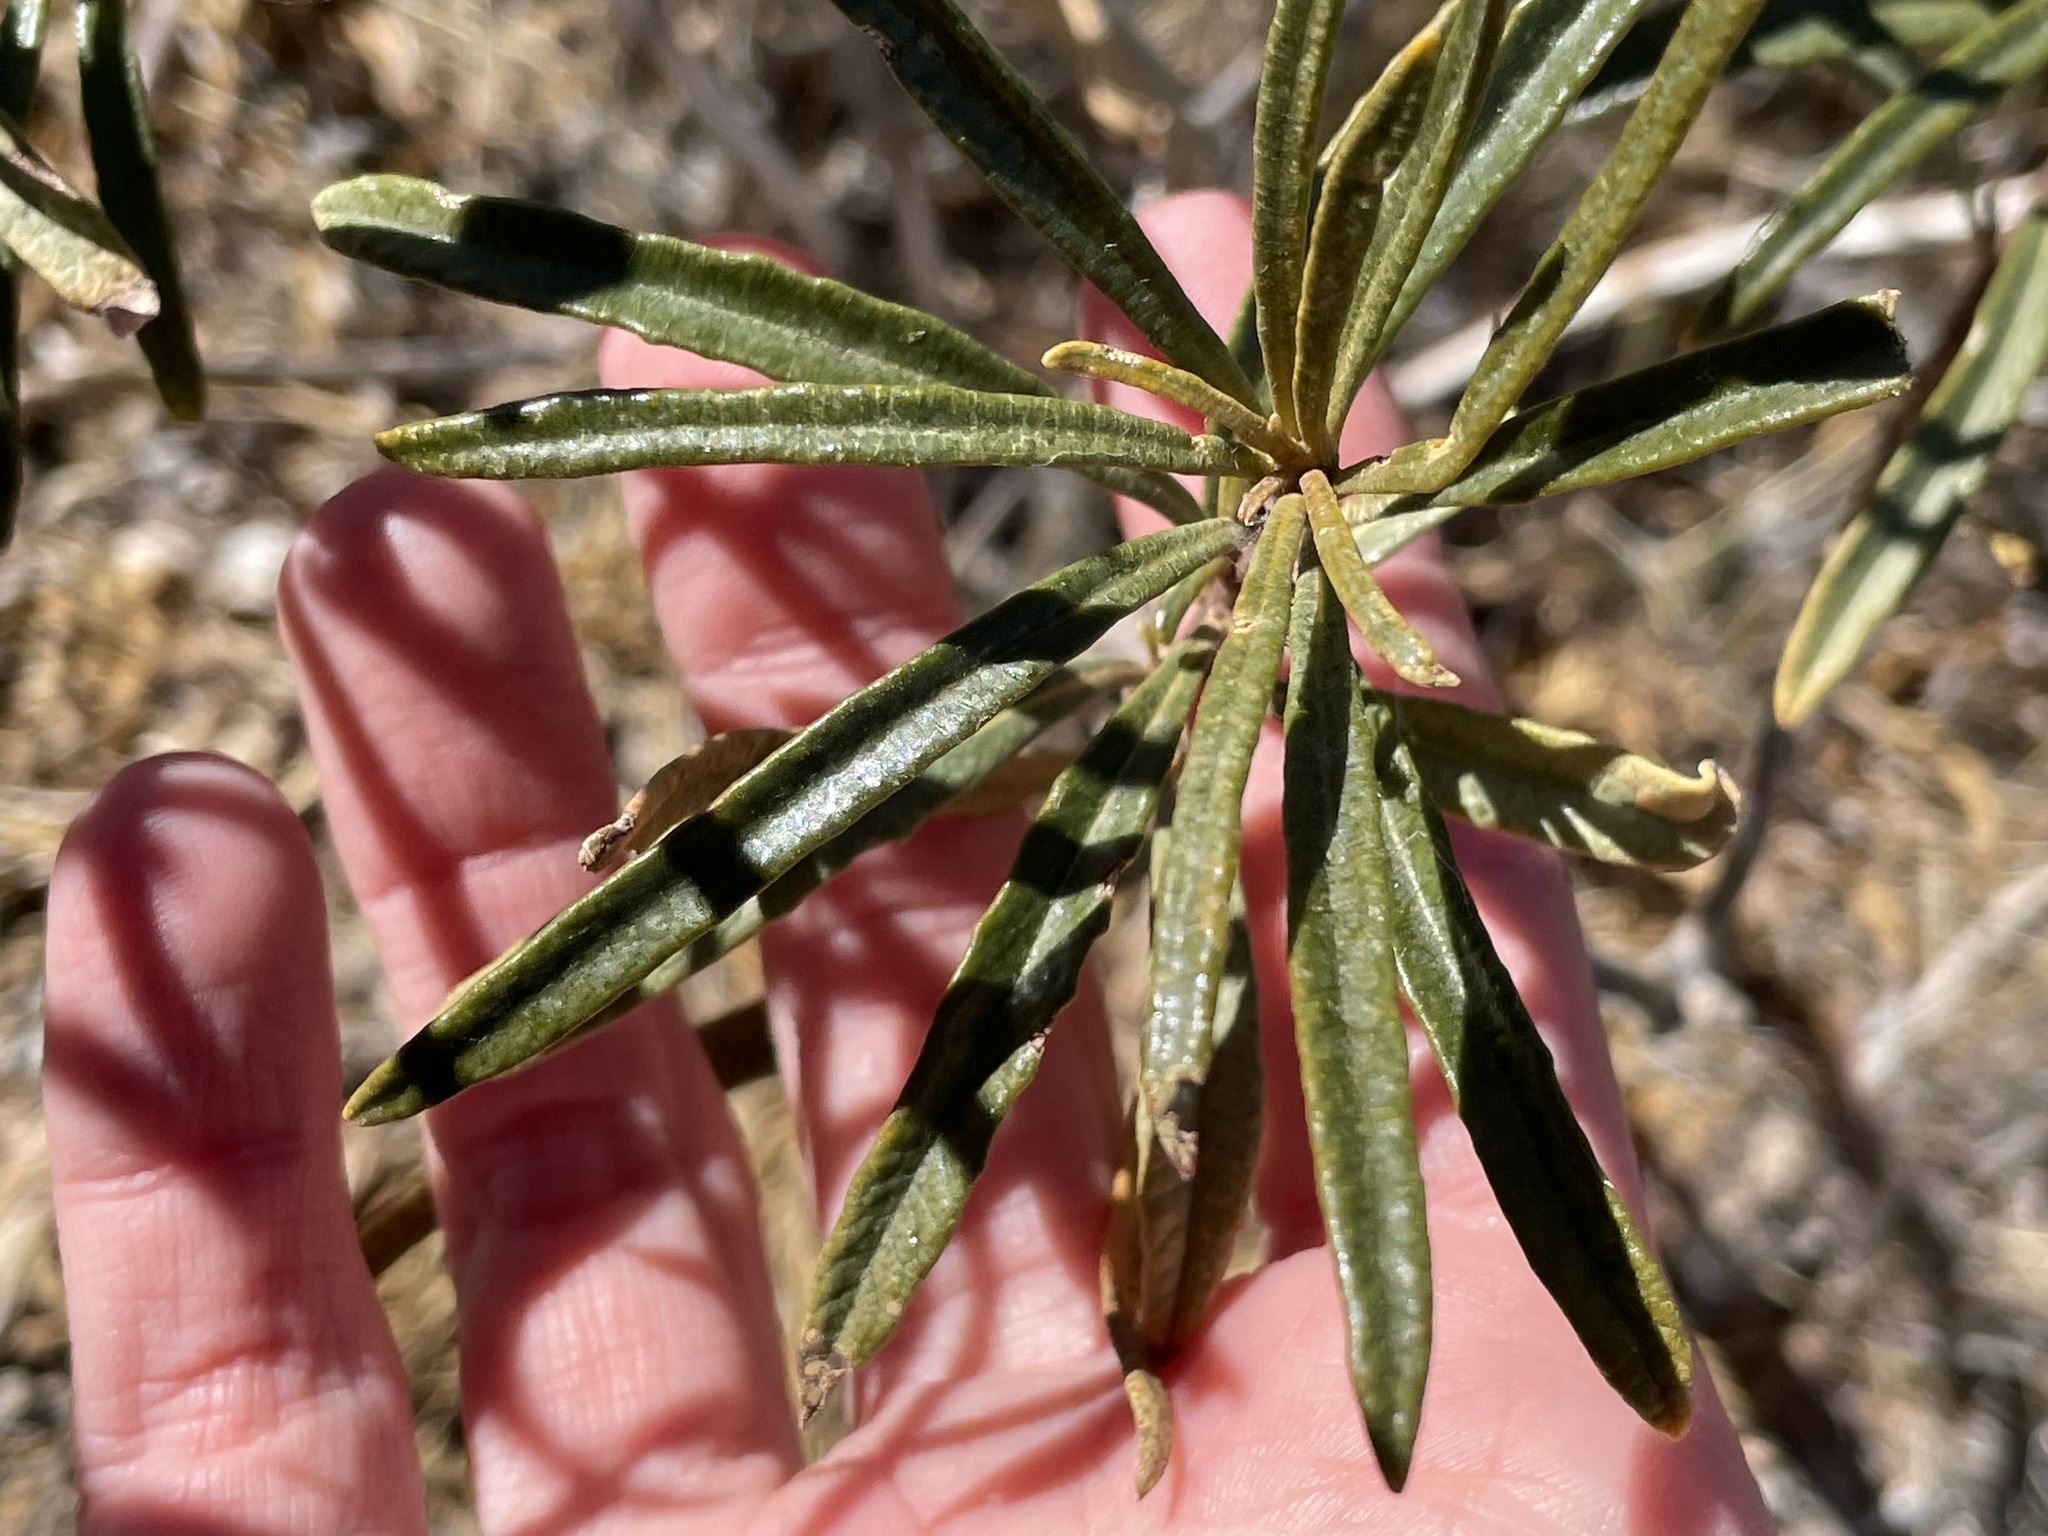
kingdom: Plantae
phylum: Tracheophyta
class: Magnoliopsida
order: Boraginales
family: Namaceae
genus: Eriodictyon
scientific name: Eriodictyon angustifolium
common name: Narrow-leaf yerba santa
